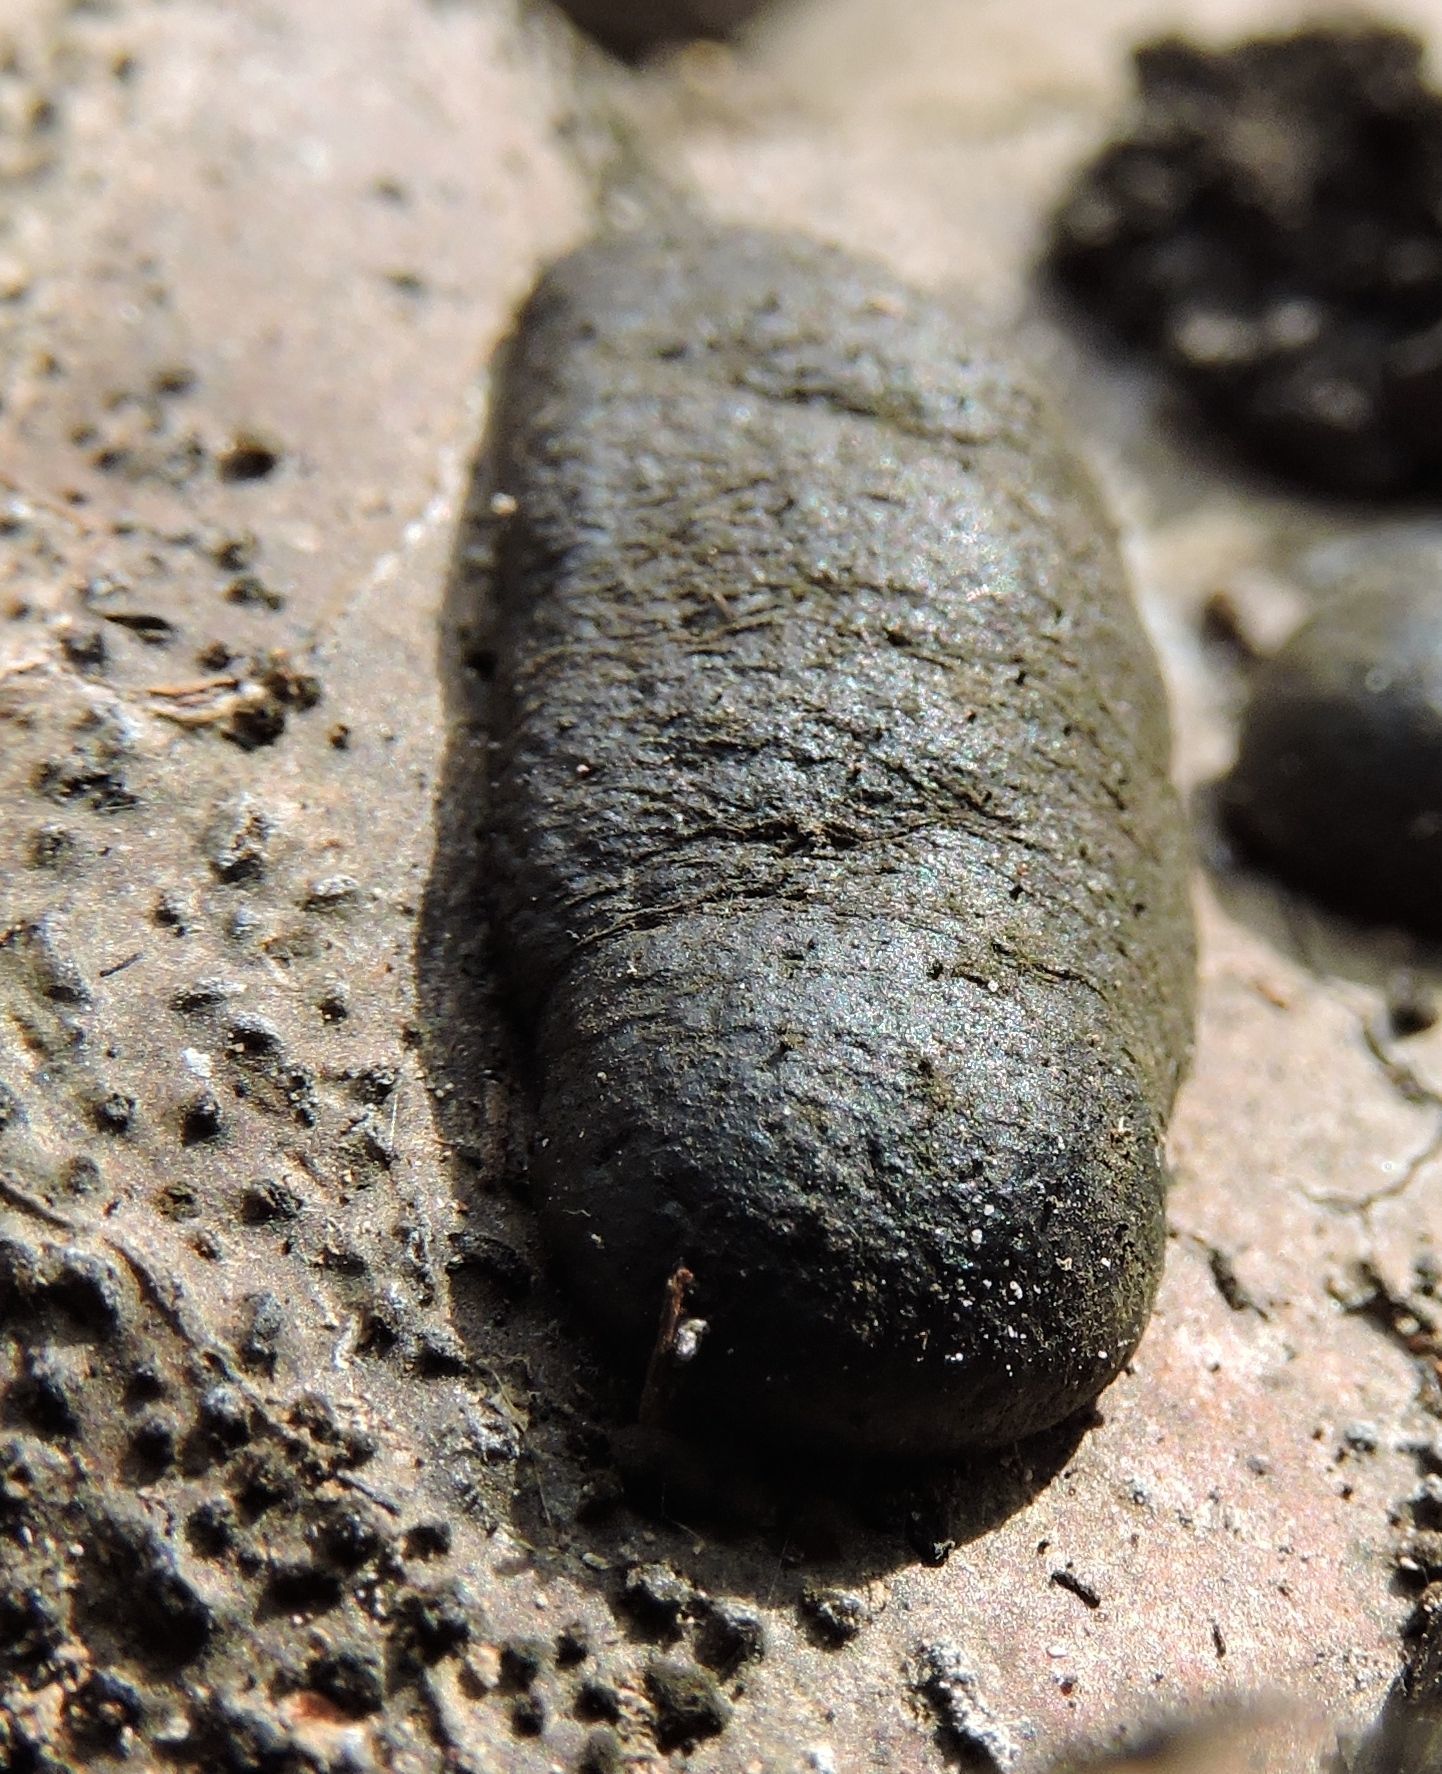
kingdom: Fungi
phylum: Ascomycota
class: Sordariomycetes
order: Xylariales
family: Hypoxylaceae
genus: Annulohypoxylon
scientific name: Annulohypoxylon thouarsianum
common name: Cramp balls
